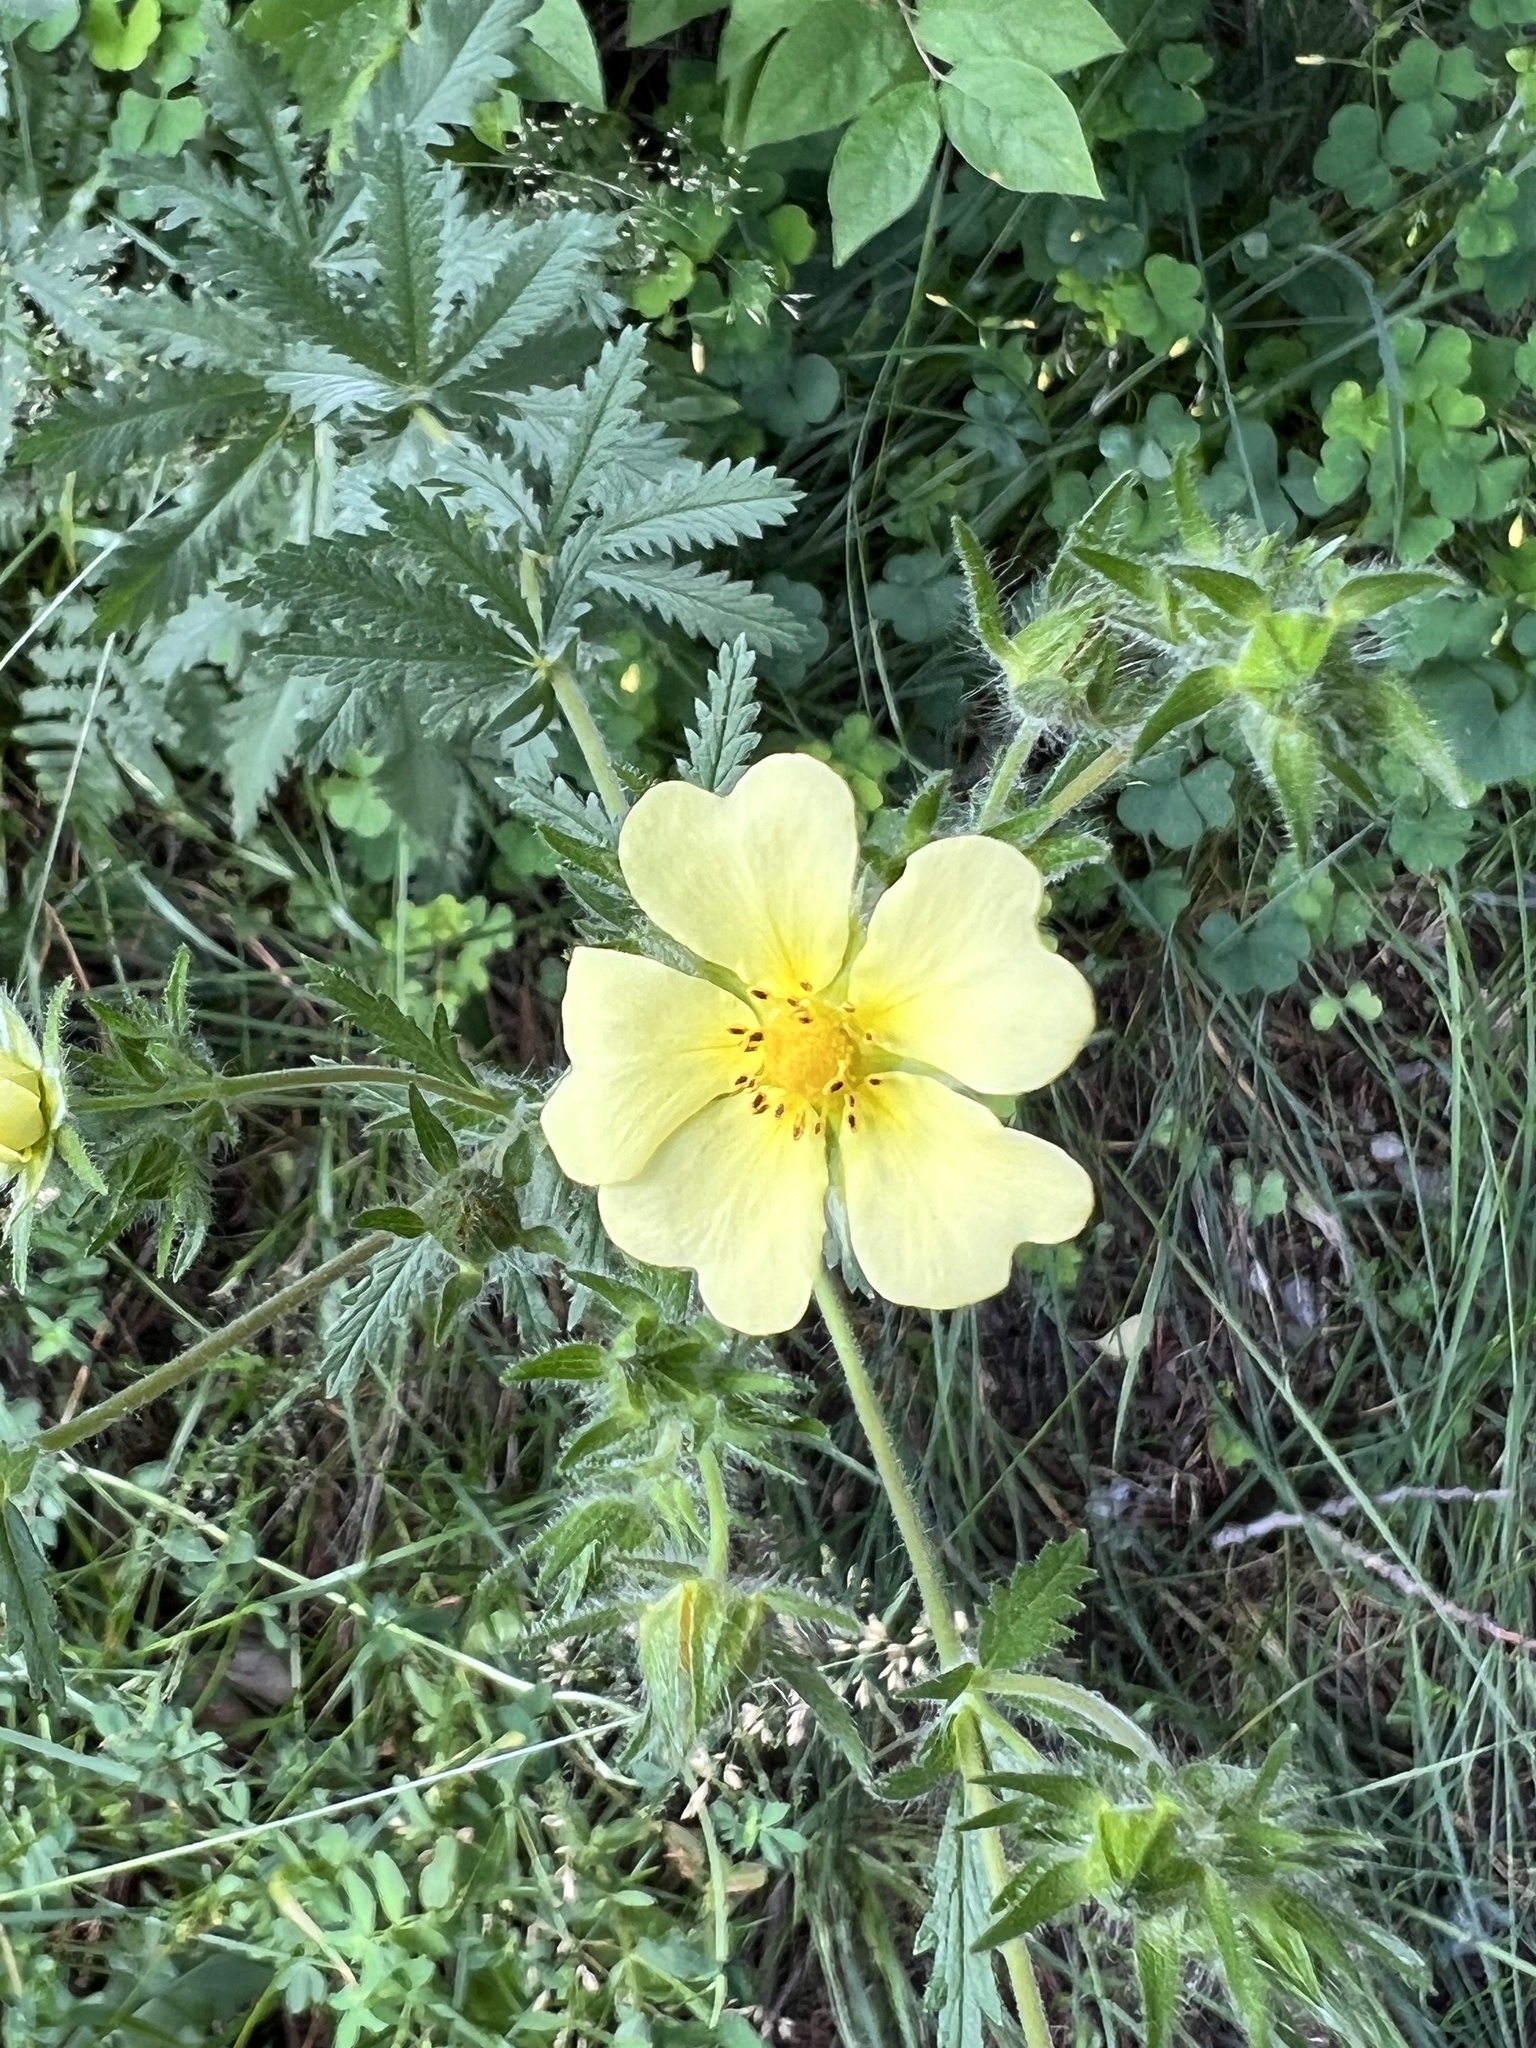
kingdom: Plantae
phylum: Tracheophyta
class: Magnoliopsida
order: Rosales
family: Rosaceae
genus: Potentilla
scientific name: Potentilla recta
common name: Sulphur cinquefoil
